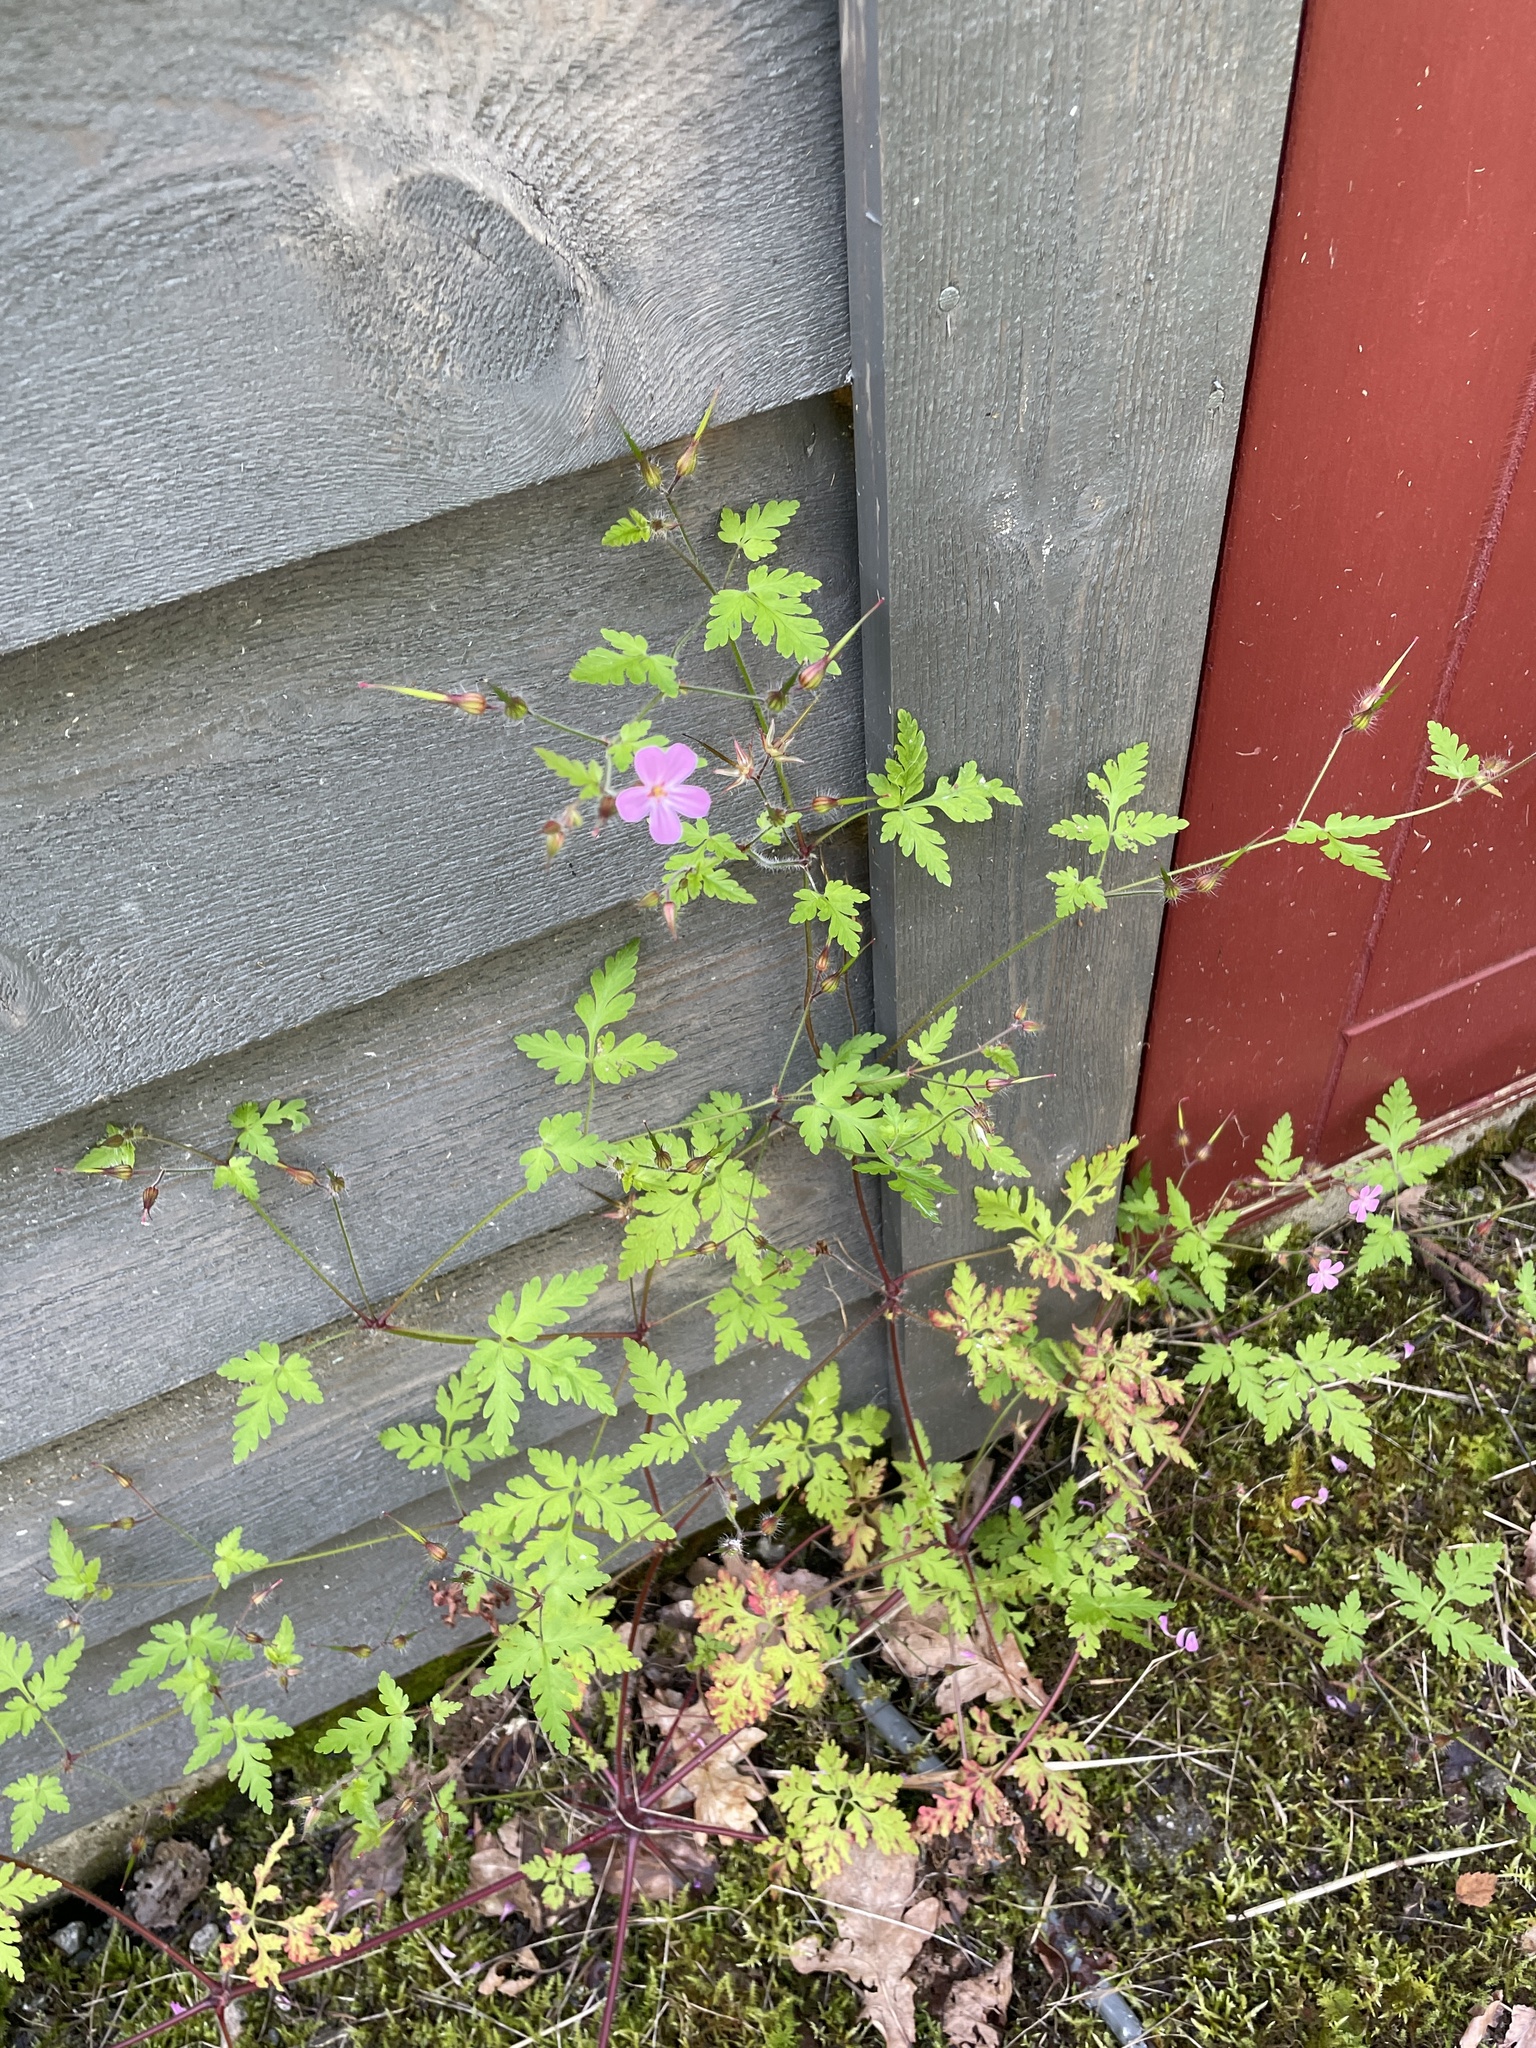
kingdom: Plantae
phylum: Tracheophyta
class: Magnoliopsida
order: Geraniales
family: Geraniaceae
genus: Geranium
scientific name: Geranium robertianum
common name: Herb-robert
